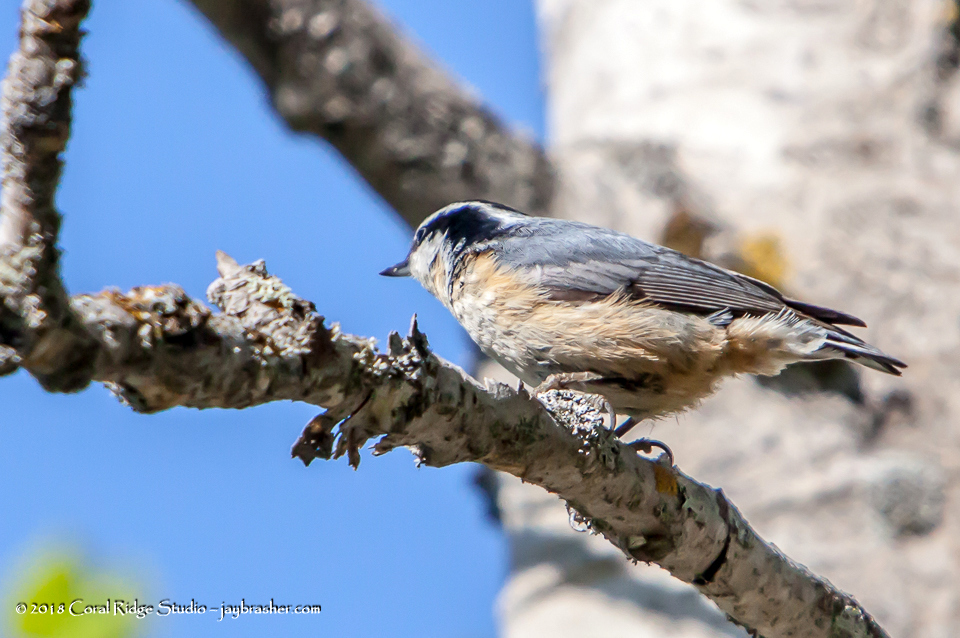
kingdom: Animalia
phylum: Chordata
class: Aves
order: Passeriformes
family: Sittidae
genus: Sitta
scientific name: Sitta canadensis
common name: Red-breasted nuthatch
